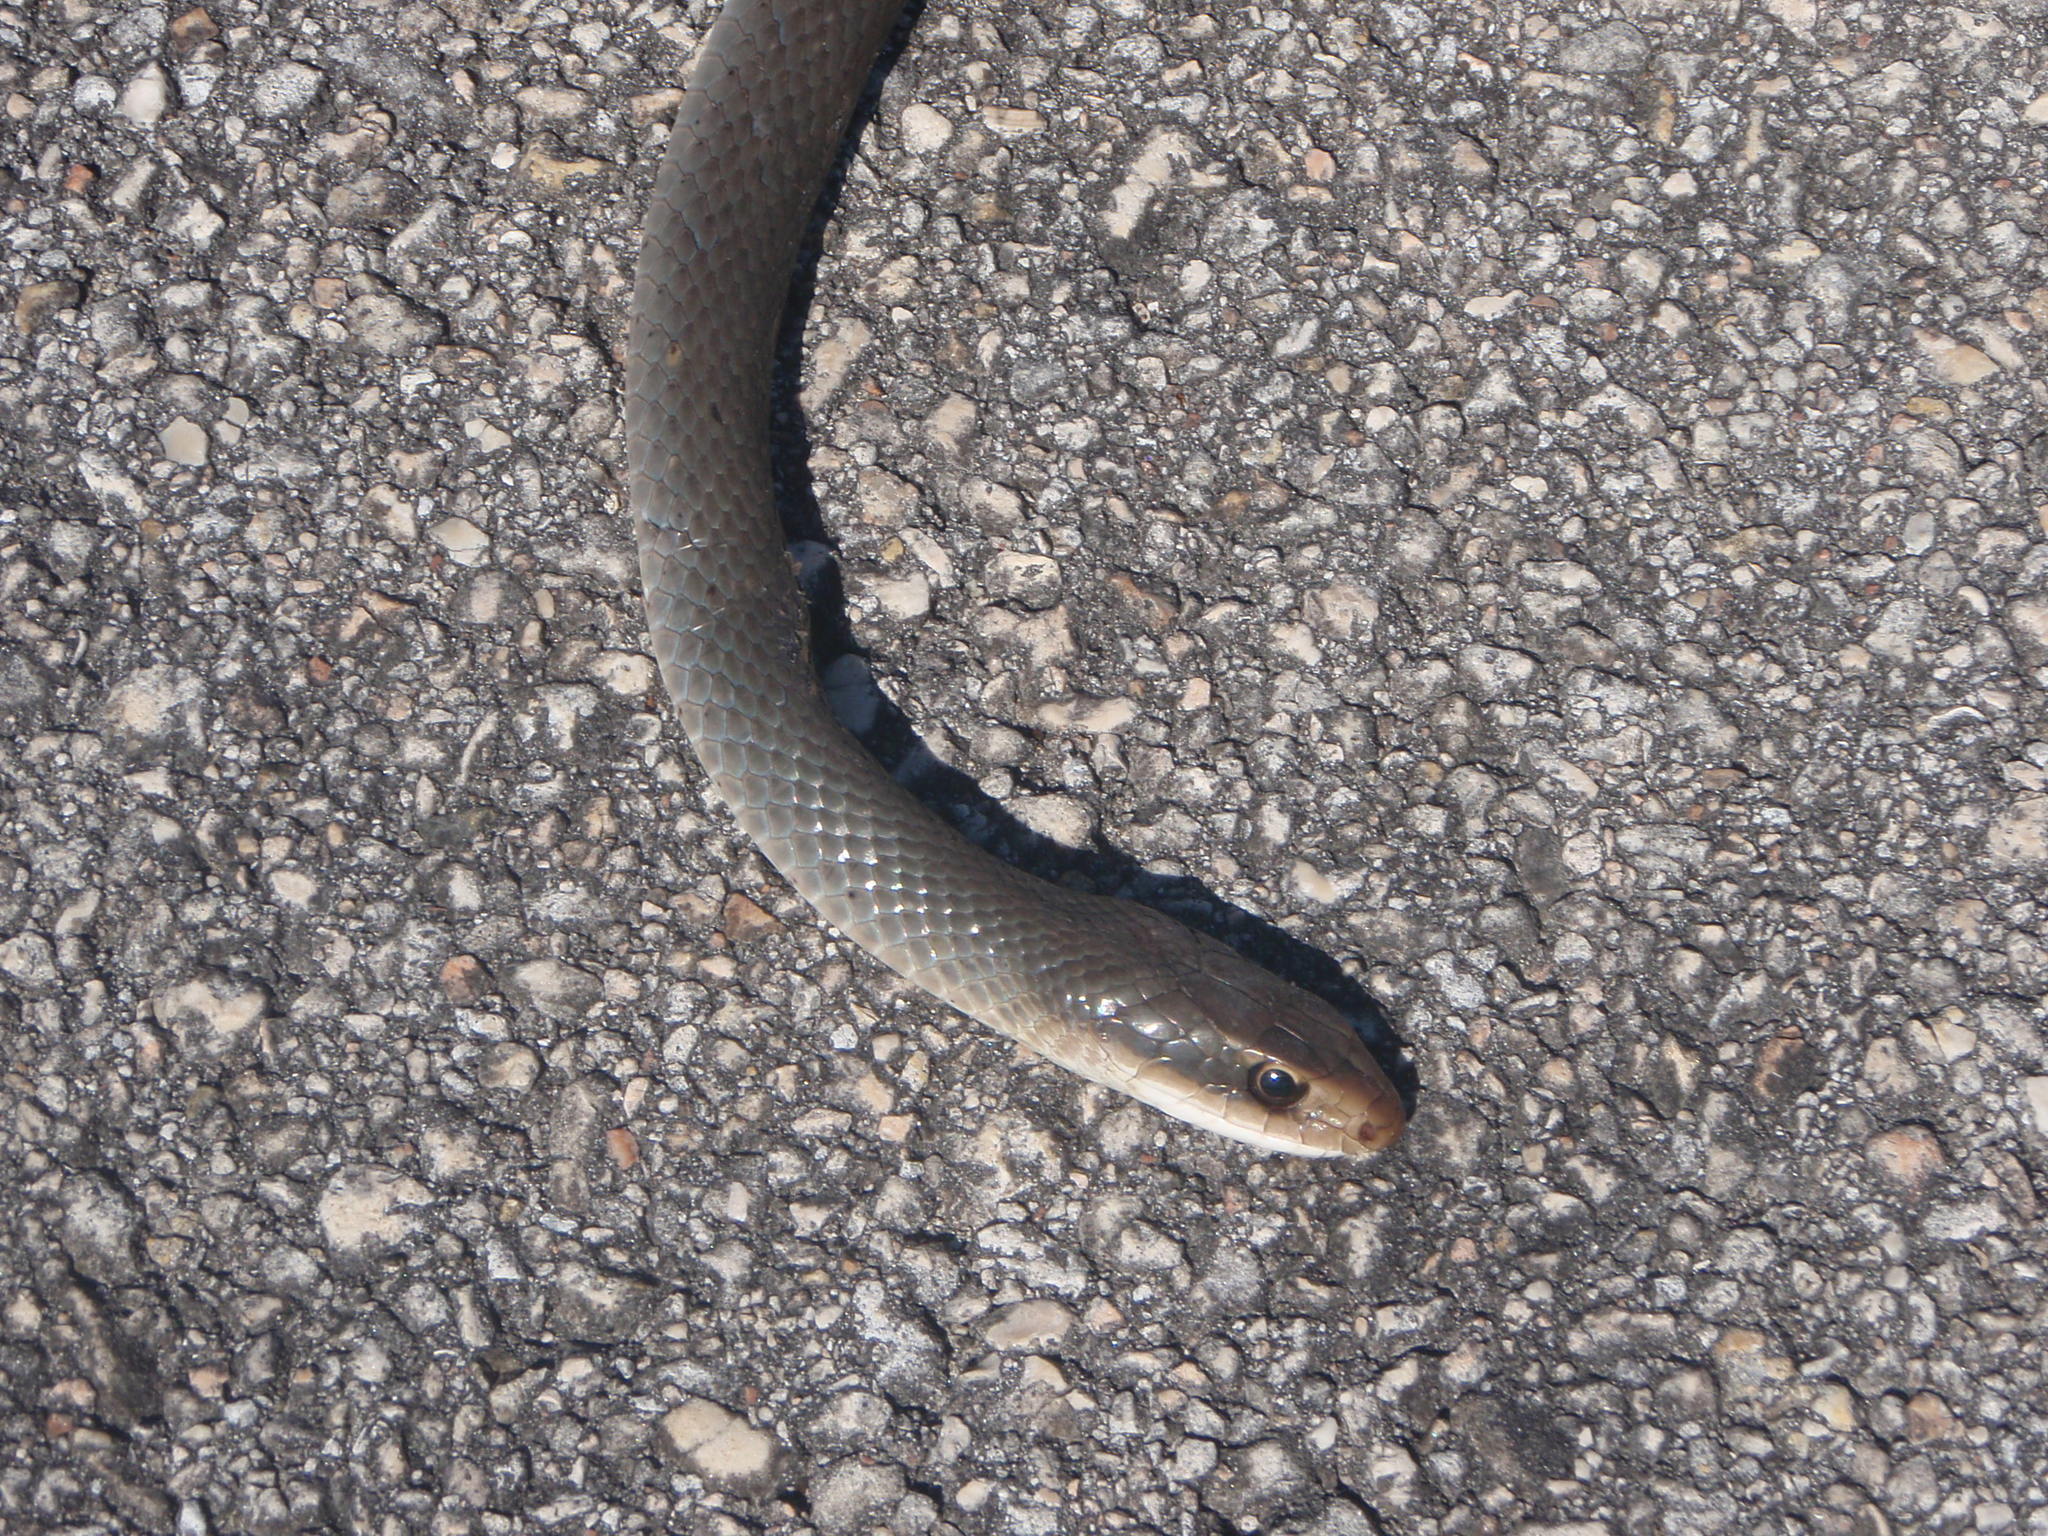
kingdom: Animalia
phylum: Chordata
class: Squamata
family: Colubridae
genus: Coluber
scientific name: Coluber constrictor
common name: Eastern racer
